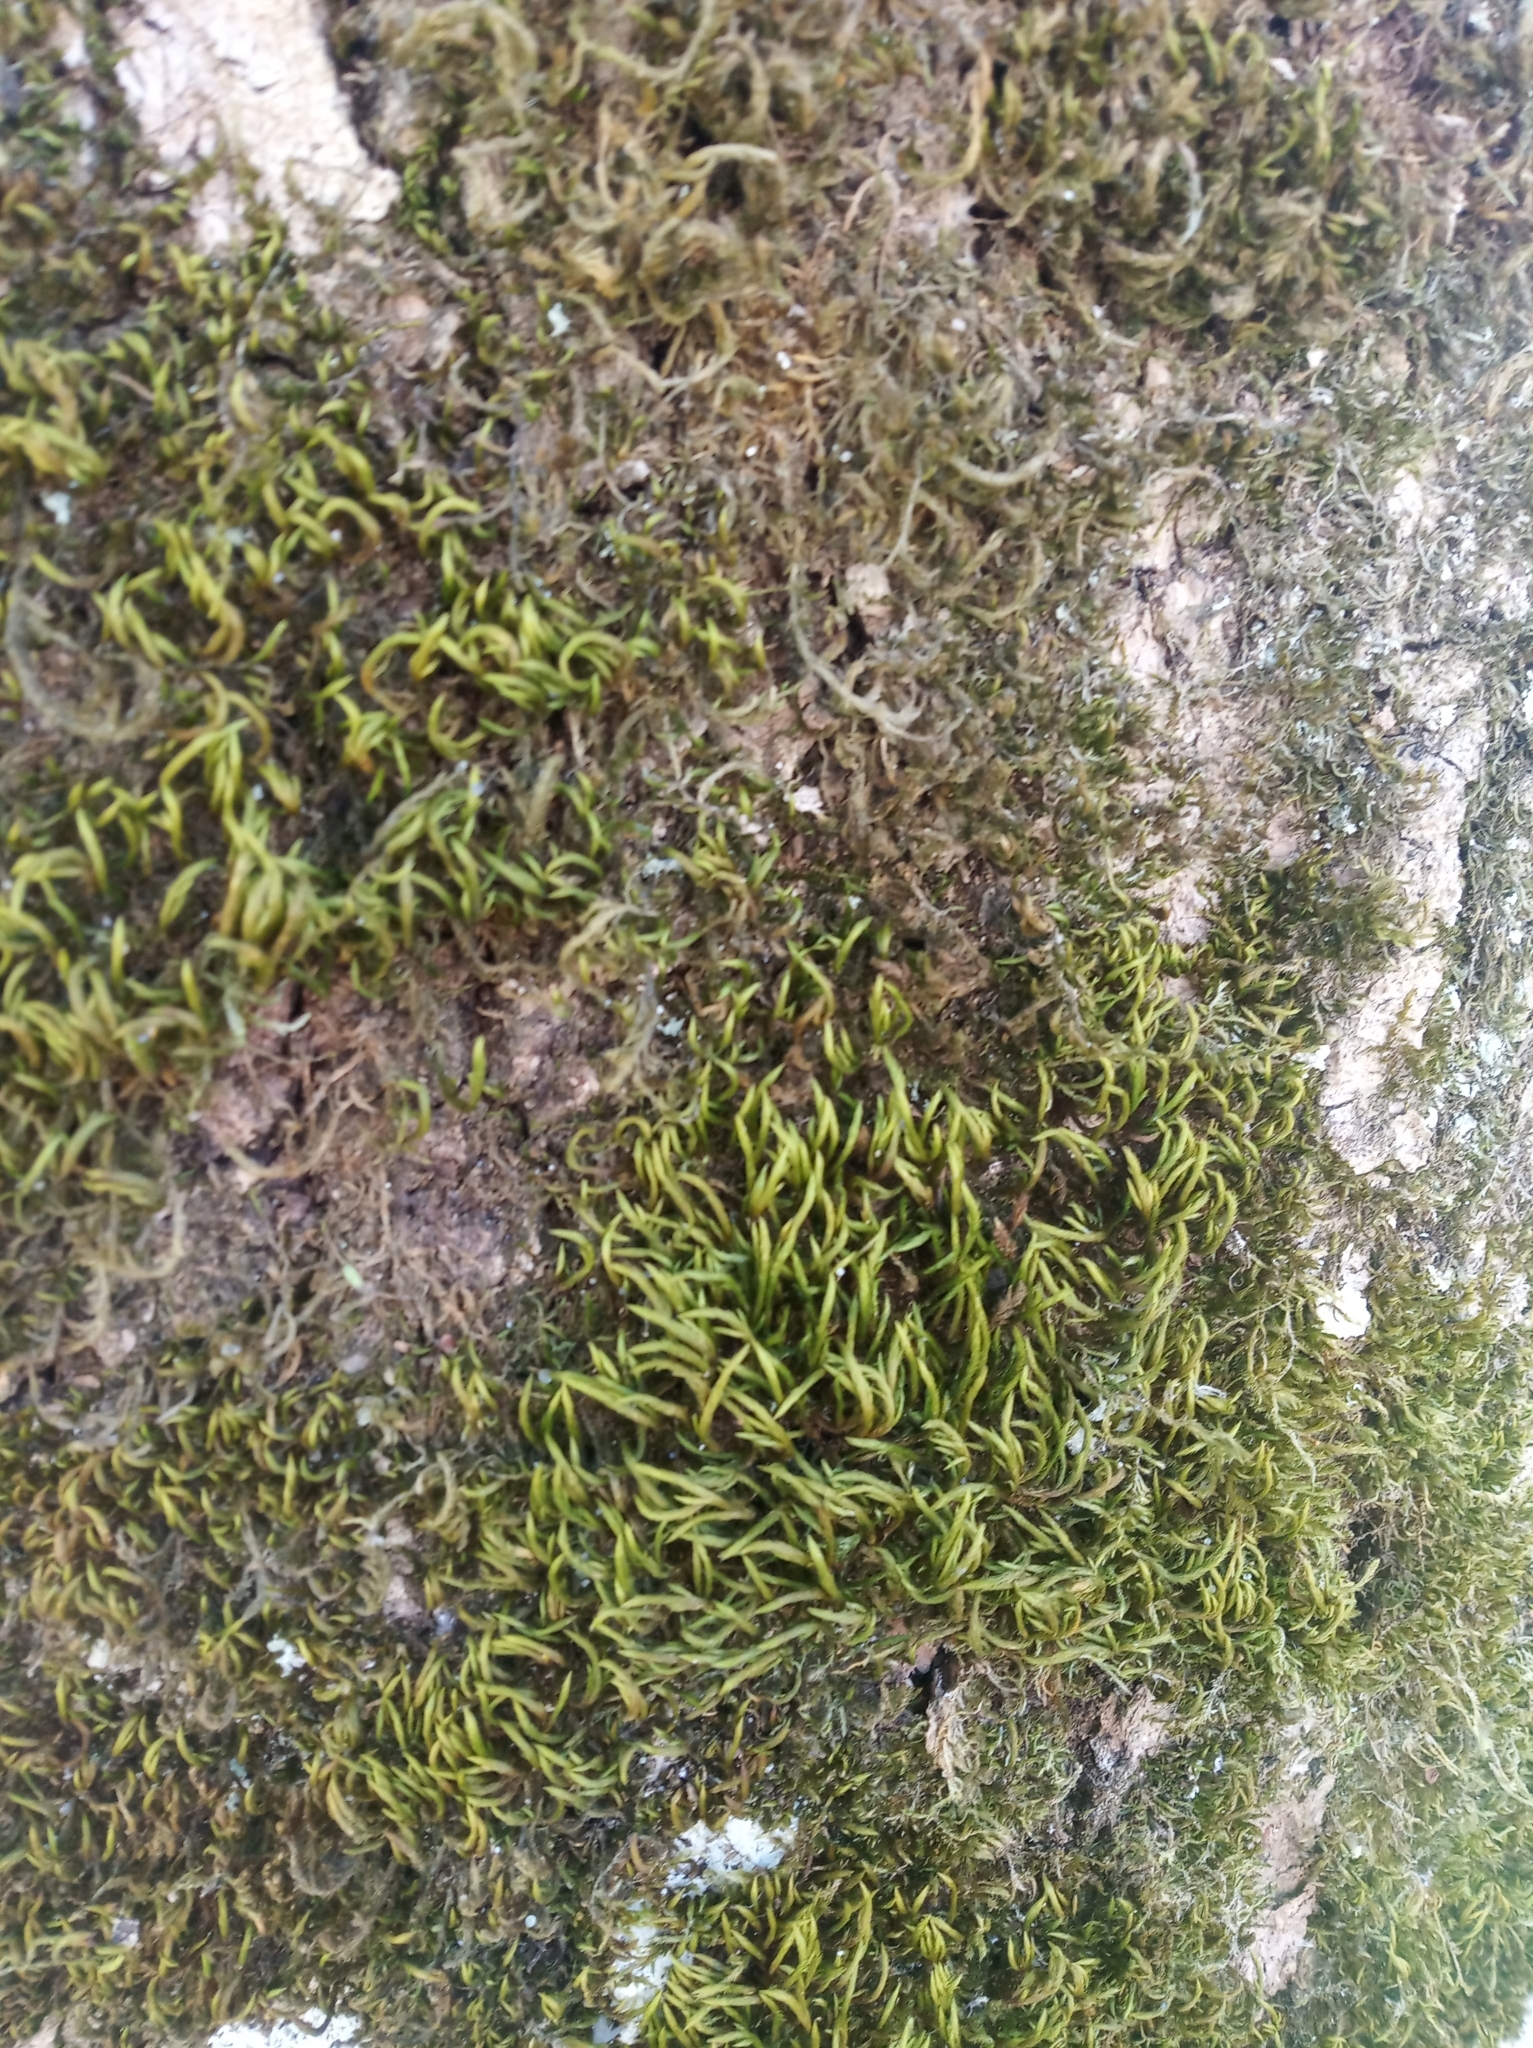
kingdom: Plantae
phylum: Bryophyta
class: Bryopsida
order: Hypnales
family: Leucodontaceae
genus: Leucodon
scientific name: Leucodon sciuroides
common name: Squirrel-tail moss
